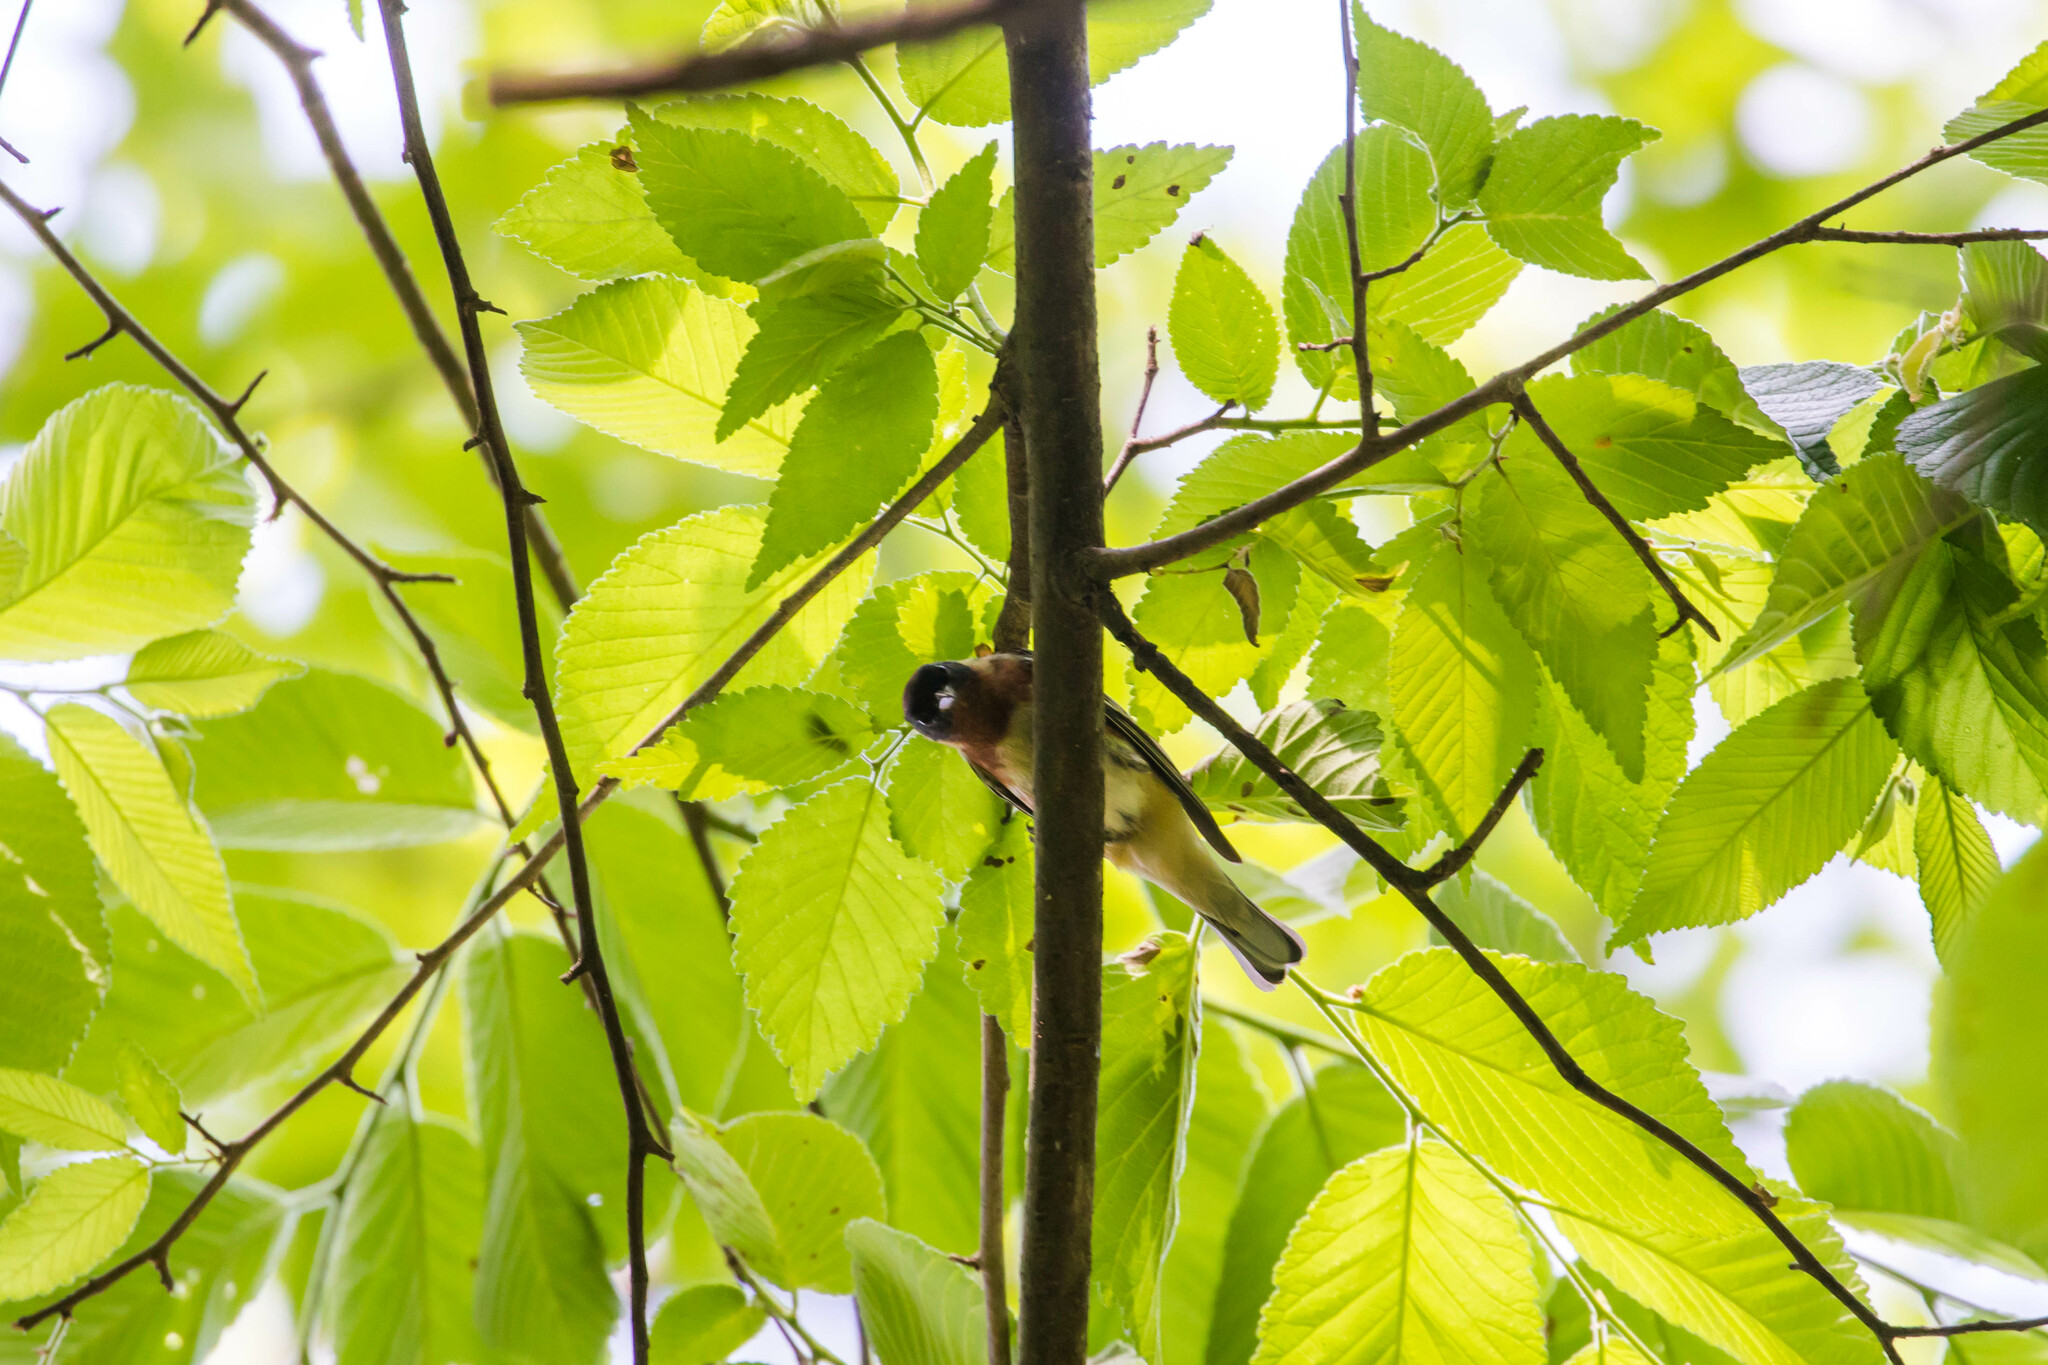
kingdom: Animalia
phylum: Chordata
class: Aves
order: Passeriformes
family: Parulidae
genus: Setophaga
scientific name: Setophaga castanea
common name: Bay-breasted warbler
